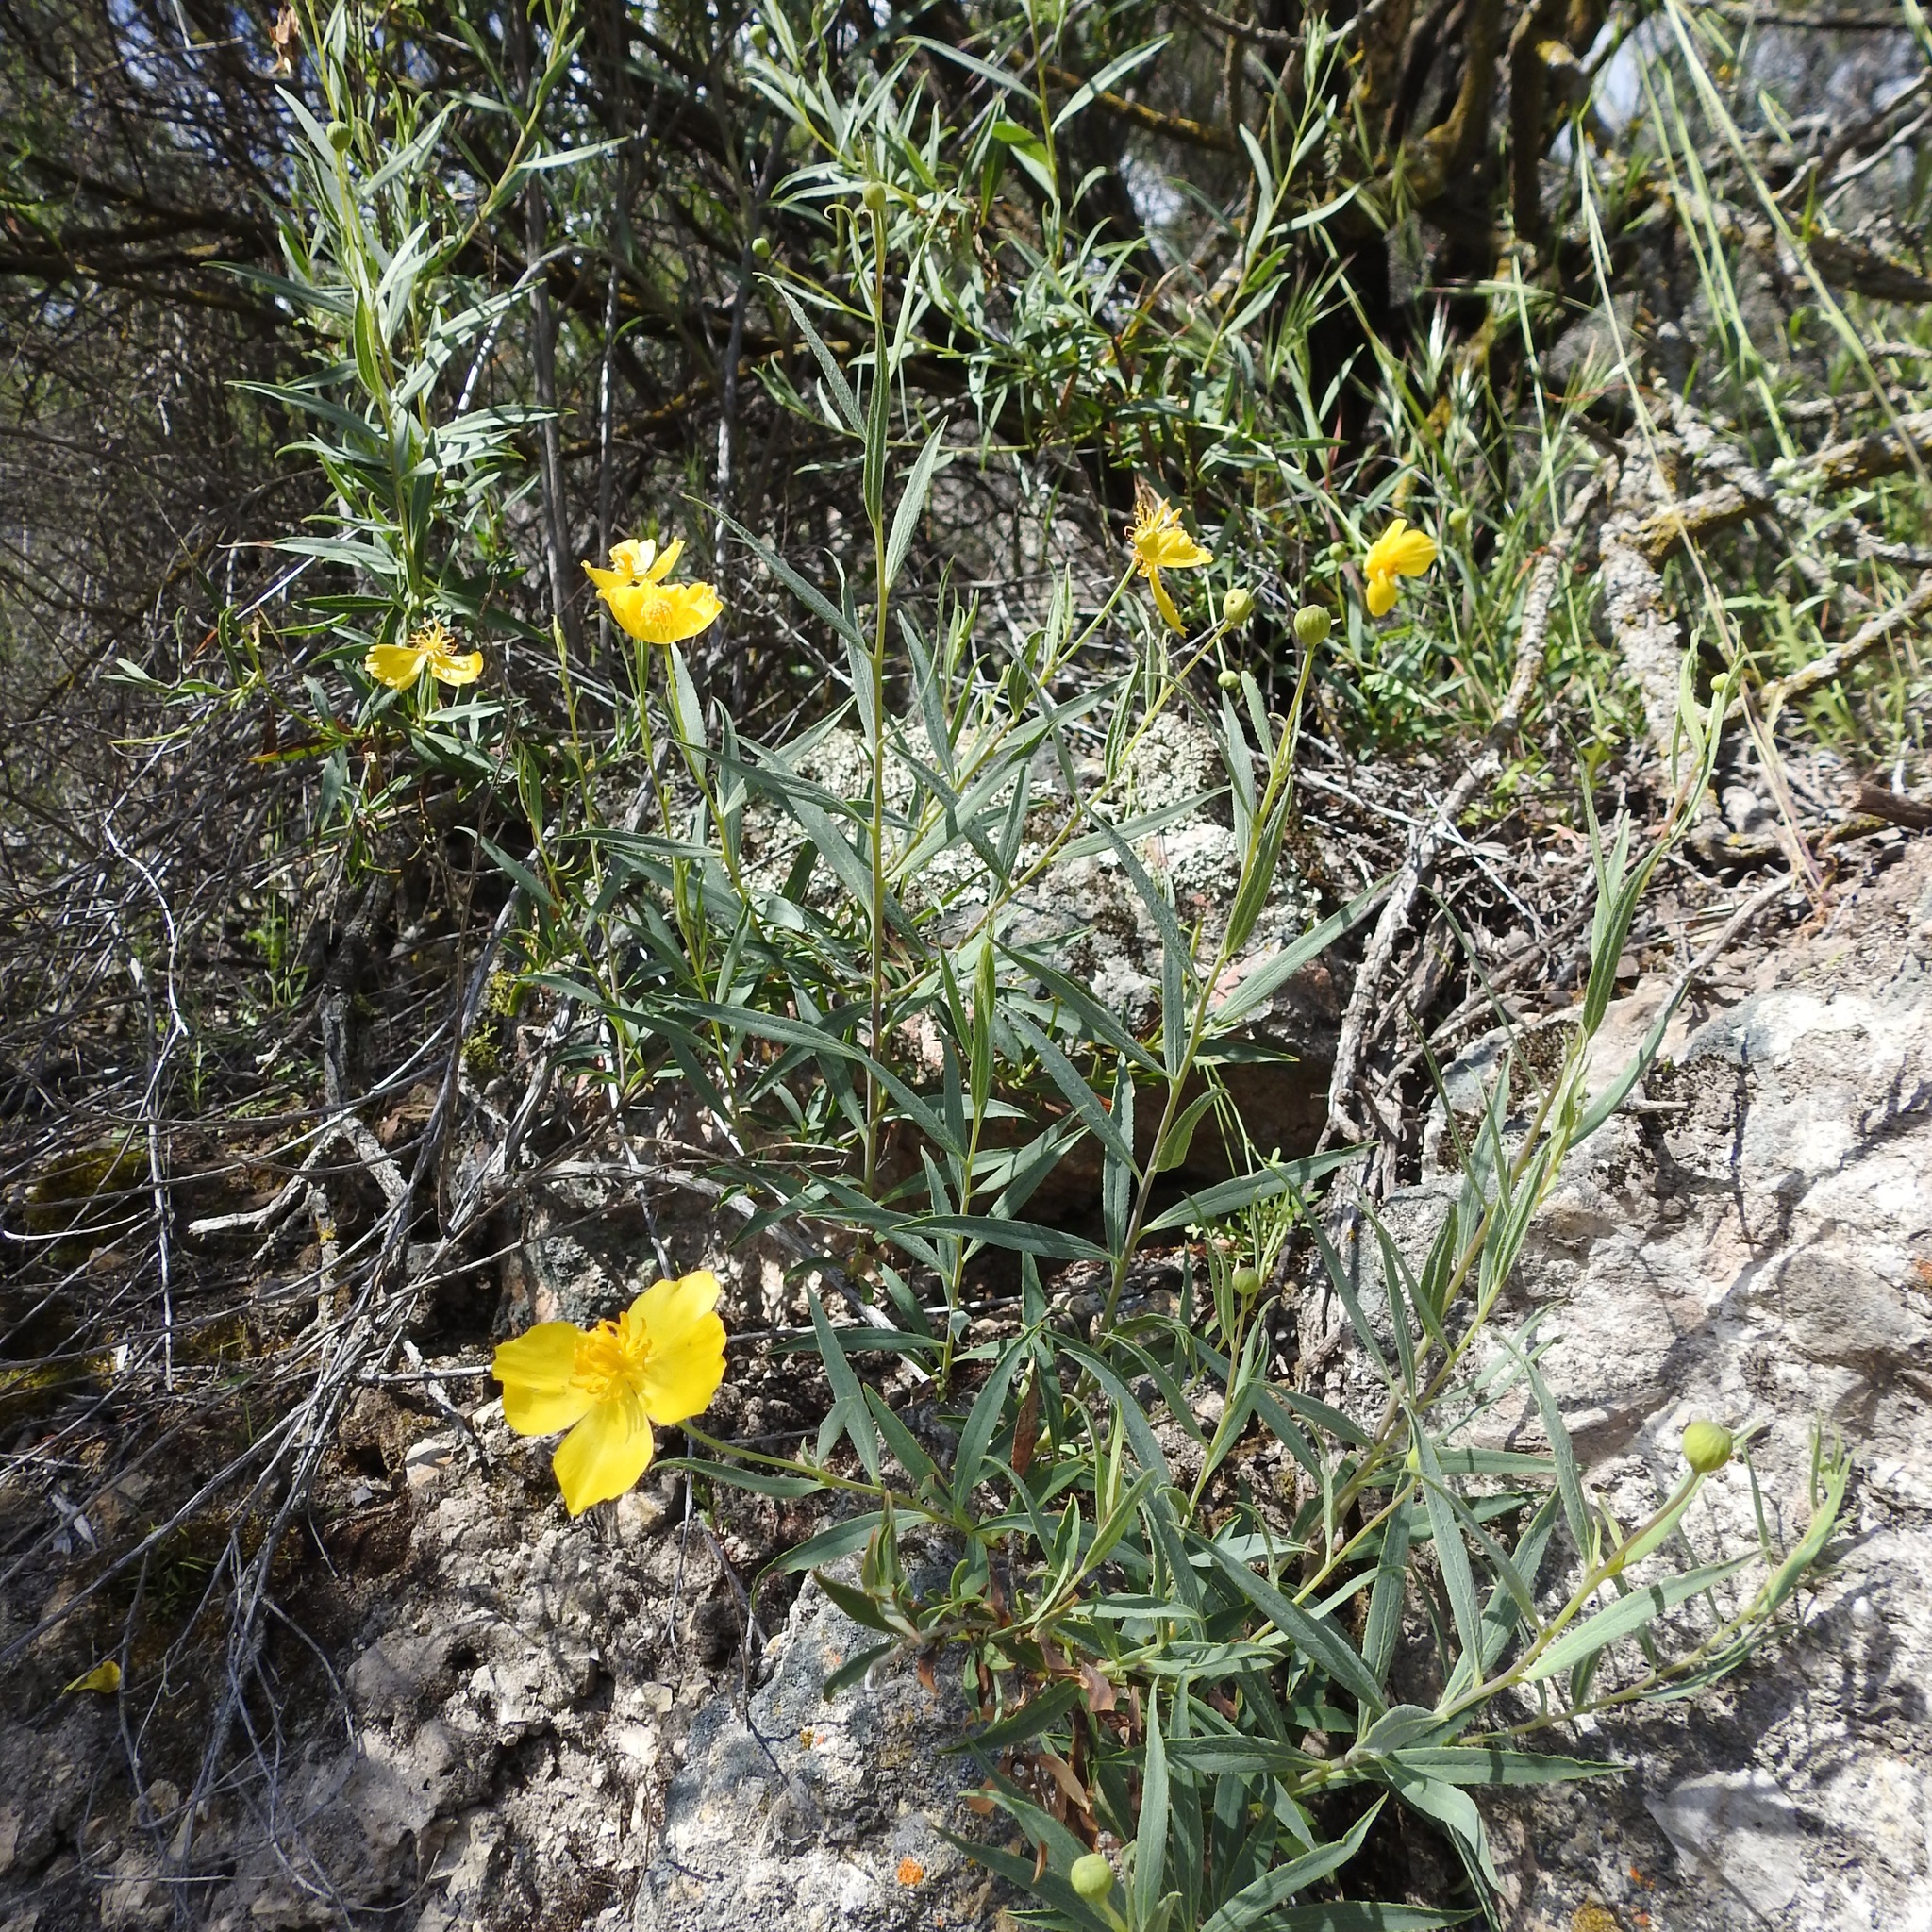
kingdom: Plantae
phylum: Tracheophyta
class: Magnoliopsida
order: Ranunculales
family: Papaveraceae
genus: Dendromecon
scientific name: Dendromecon rigida
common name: Tree poppy
